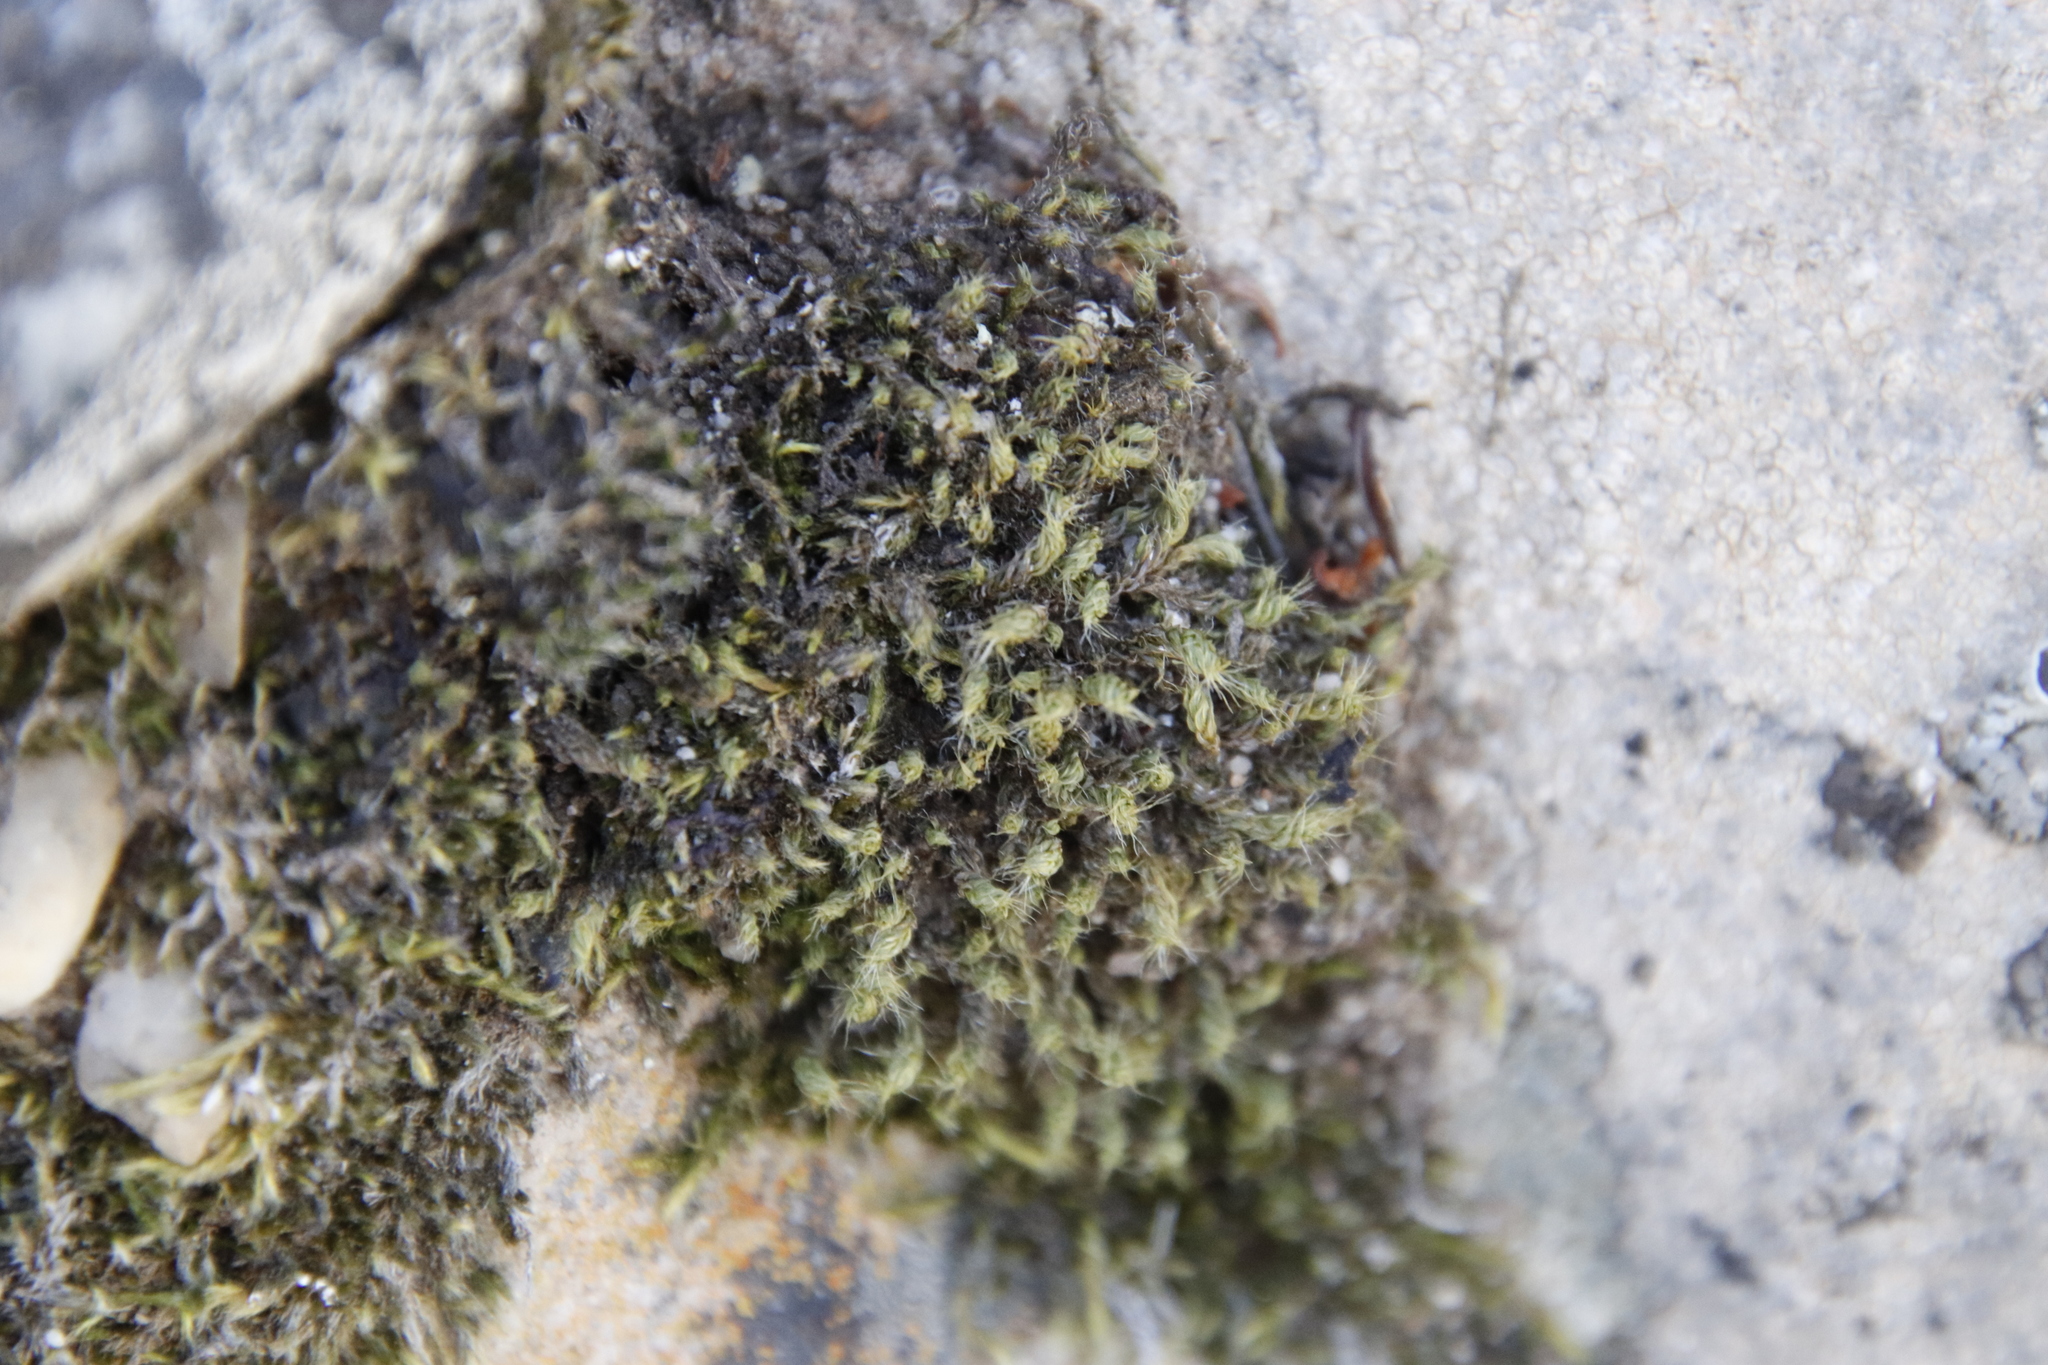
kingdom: Plantae
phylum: Bryophyta
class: Bryopsida
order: Pottiales
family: Pottiaceae
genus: Pseudocrossidium
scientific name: Pseudocrossidium crinitum
